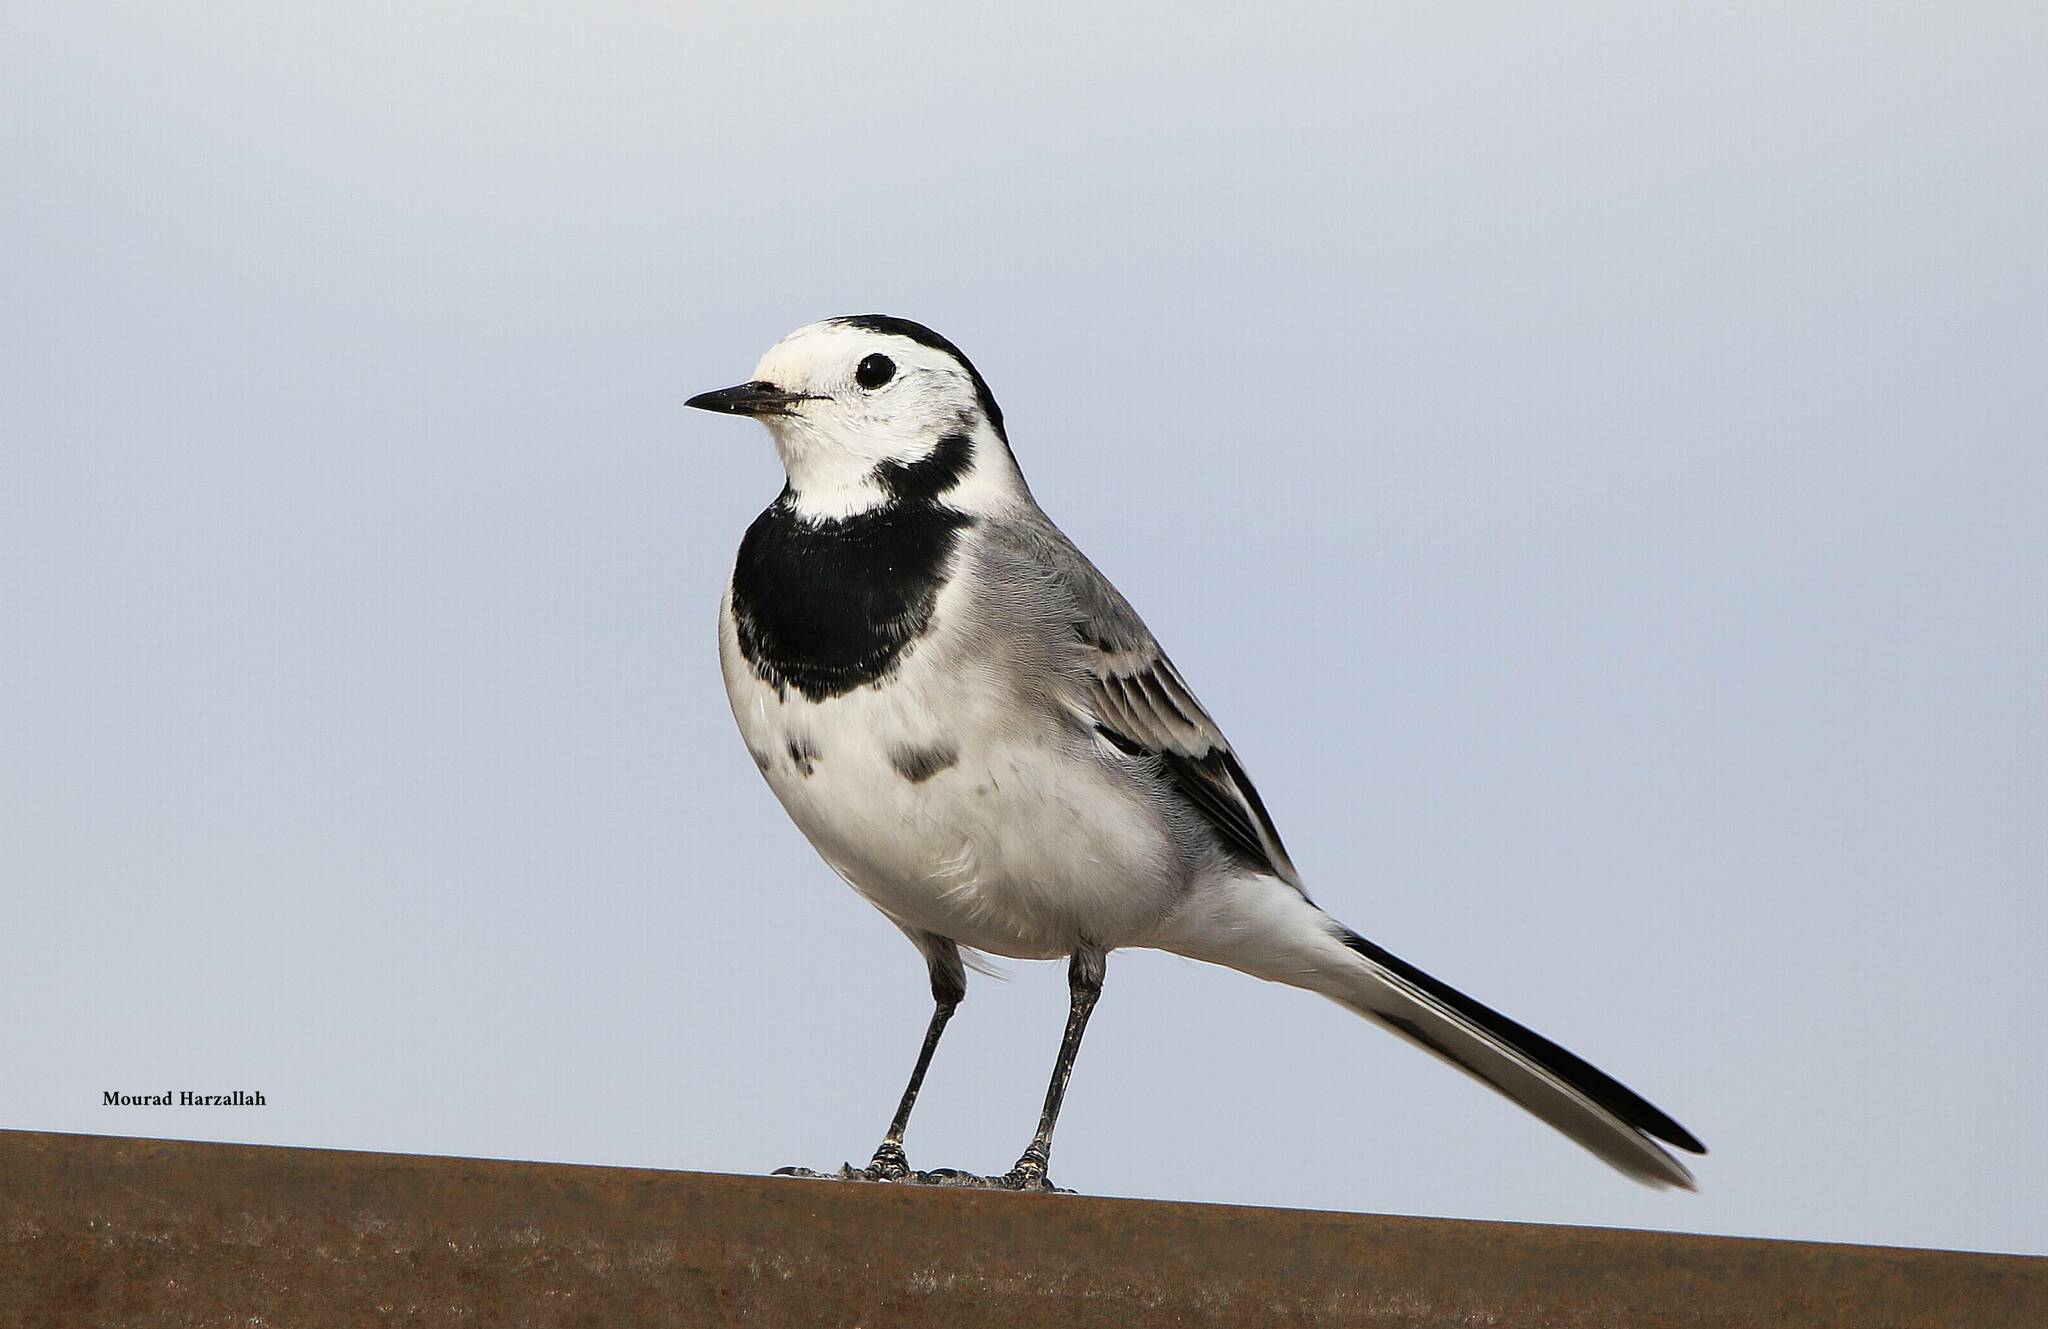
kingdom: Animalia
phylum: Chordata
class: Aves
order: Passeriformes
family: Motacillidae
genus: Motacilla
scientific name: Motacilla alba
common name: White wagtail
